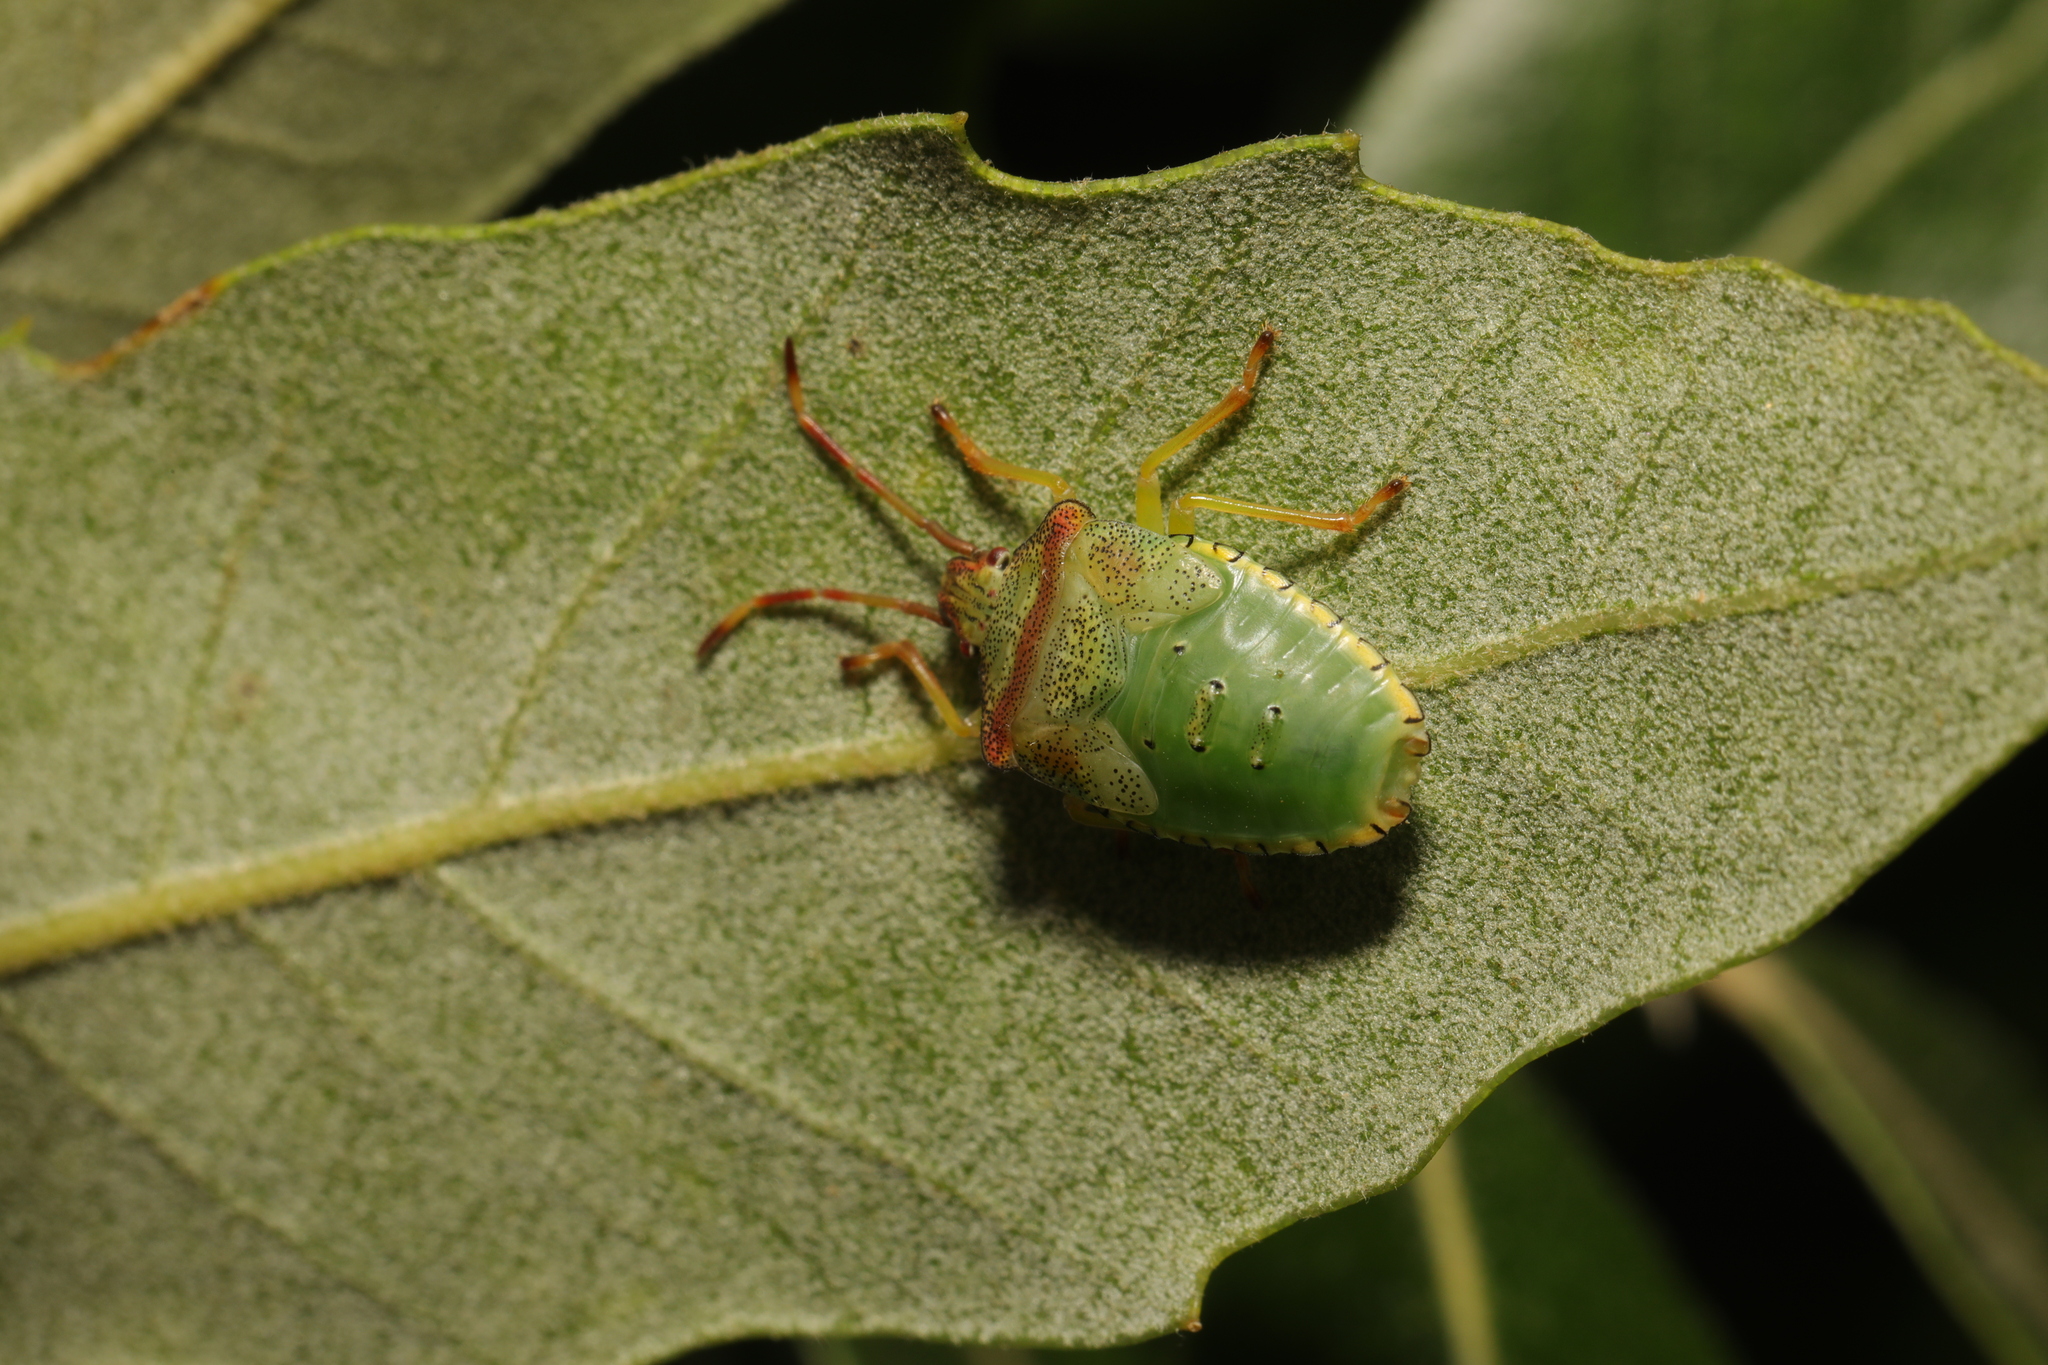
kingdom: Animalia
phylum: Arthropoda
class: Insecta
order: Hemiptera
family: Acanthosomatidae
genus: Acanthosoma
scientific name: Acanthosoma haemorrhoidale
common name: Hawthorn shieldbug
